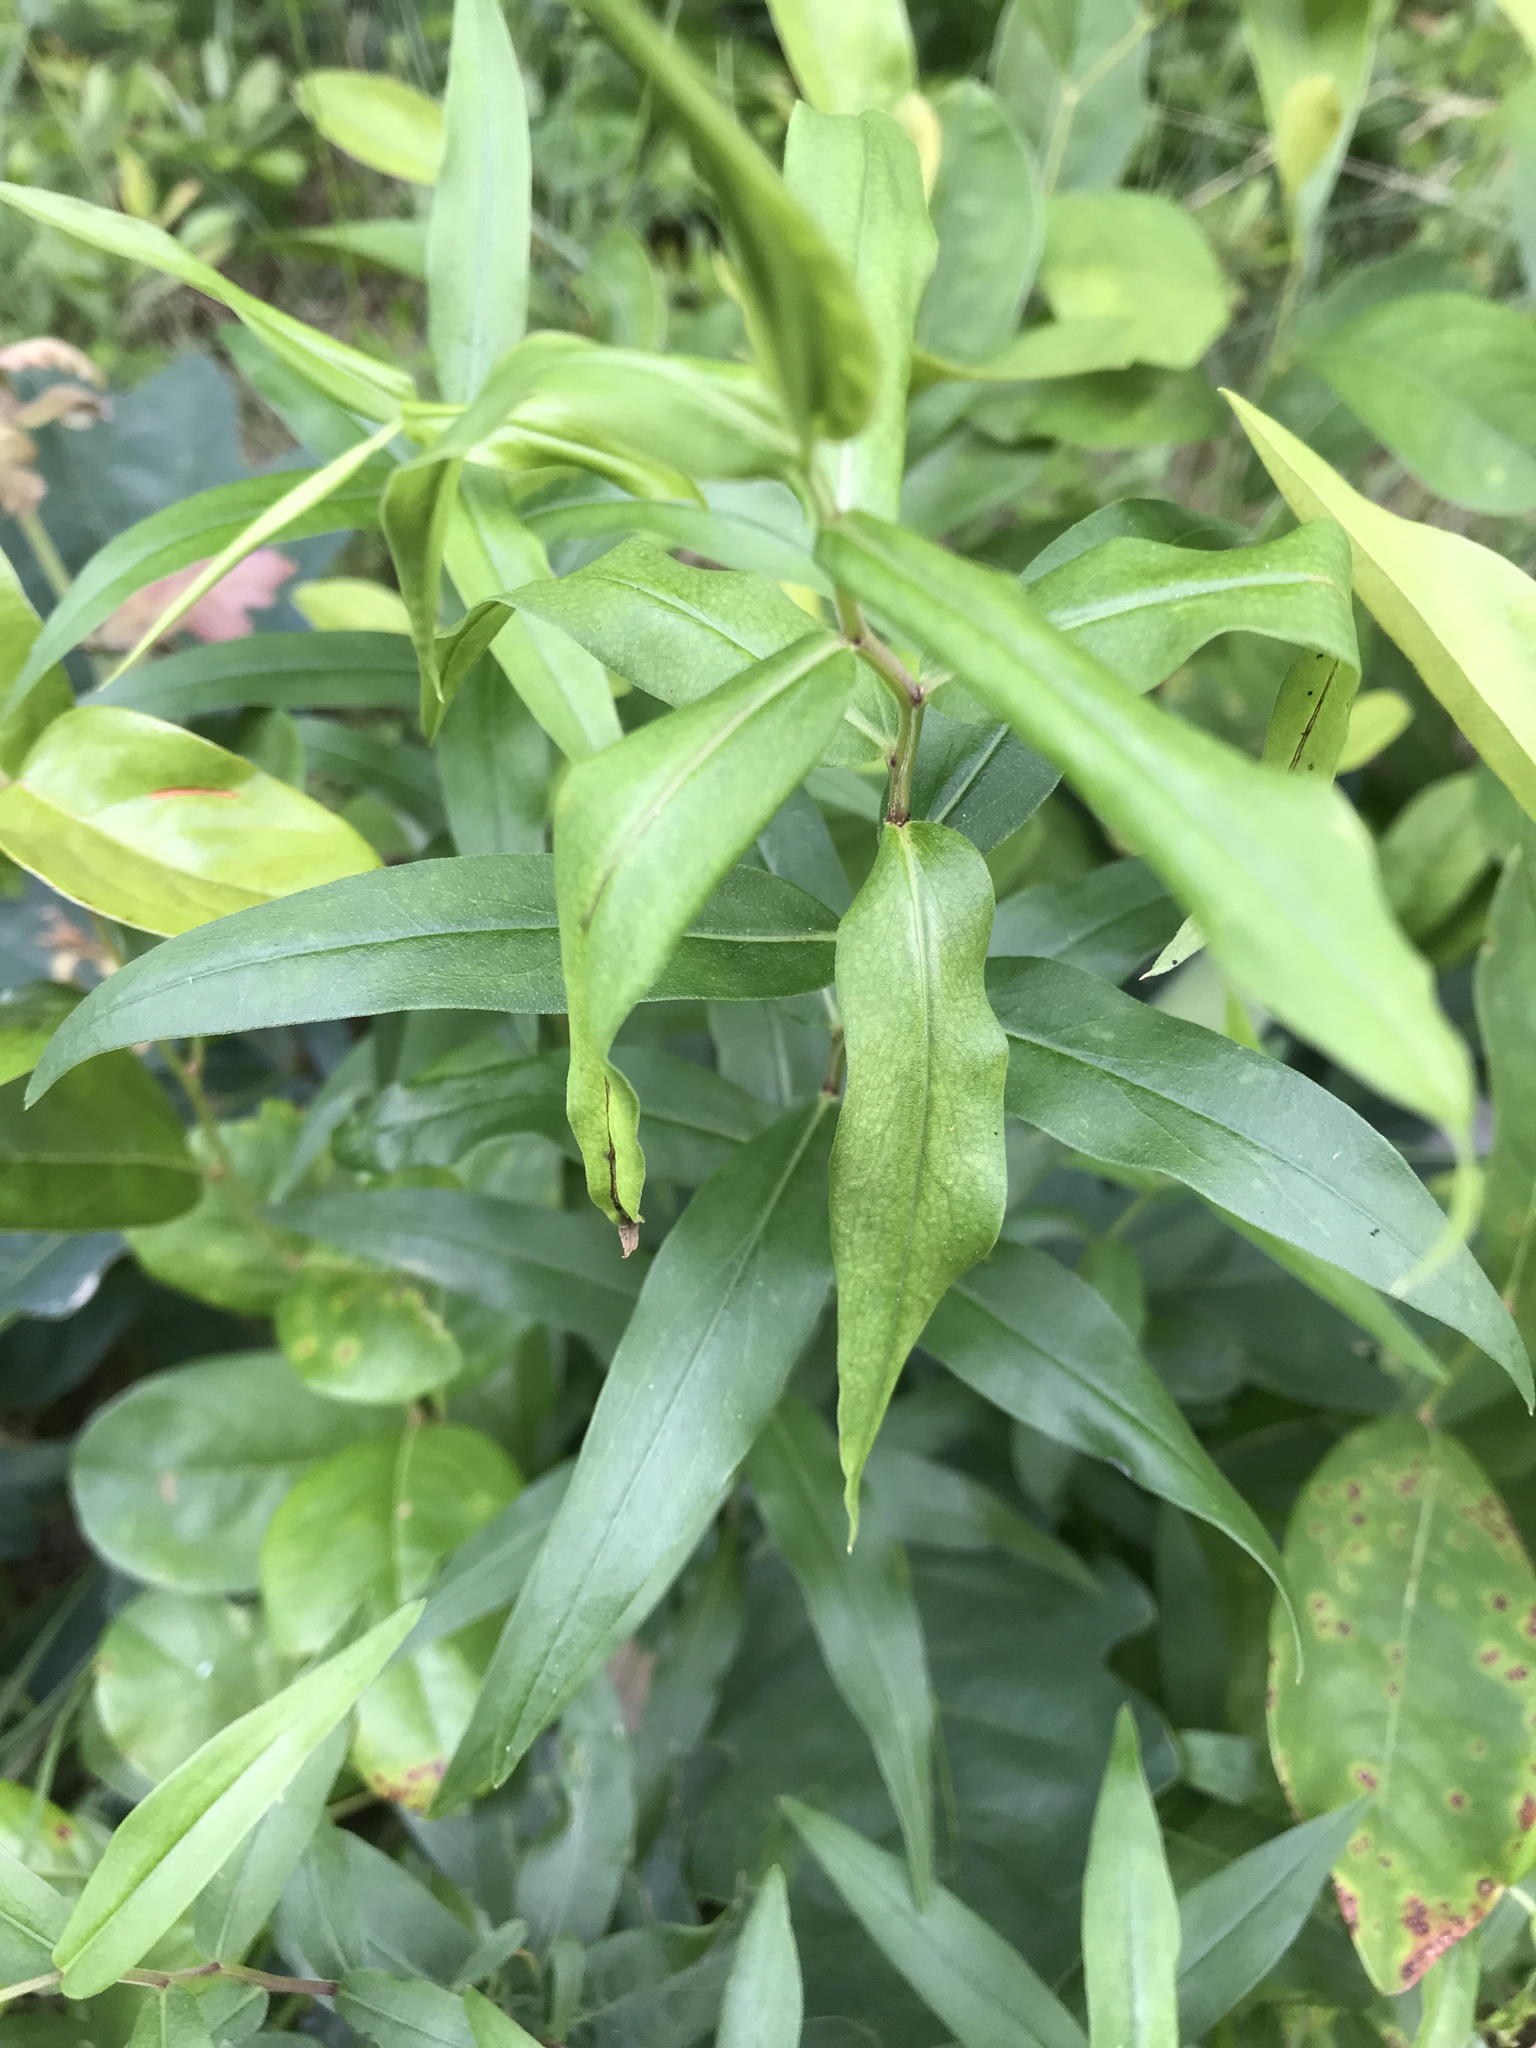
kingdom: Plantae
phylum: Tracheophyta
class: Magnoliopsida
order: Asterales
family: Asteraceae
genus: Solidago
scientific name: Solidago odora
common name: Anise-scented goldenrod
